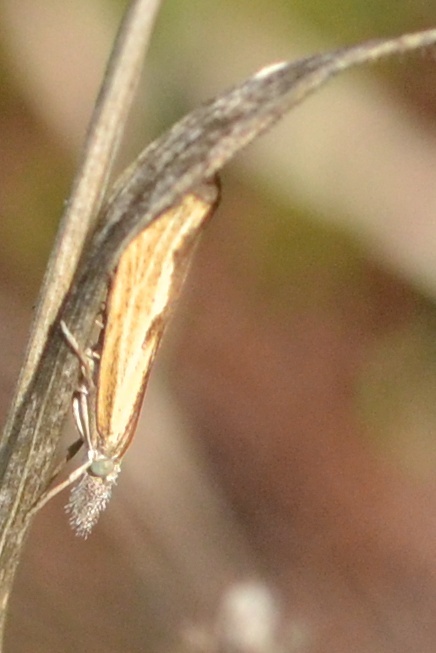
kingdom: Animalia
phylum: Arthropoda
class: Insecta
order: Lepidoptera
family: Crambidae
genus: Agriphila
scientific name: Agriphila inquinatella
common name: Barred grass-veneer
